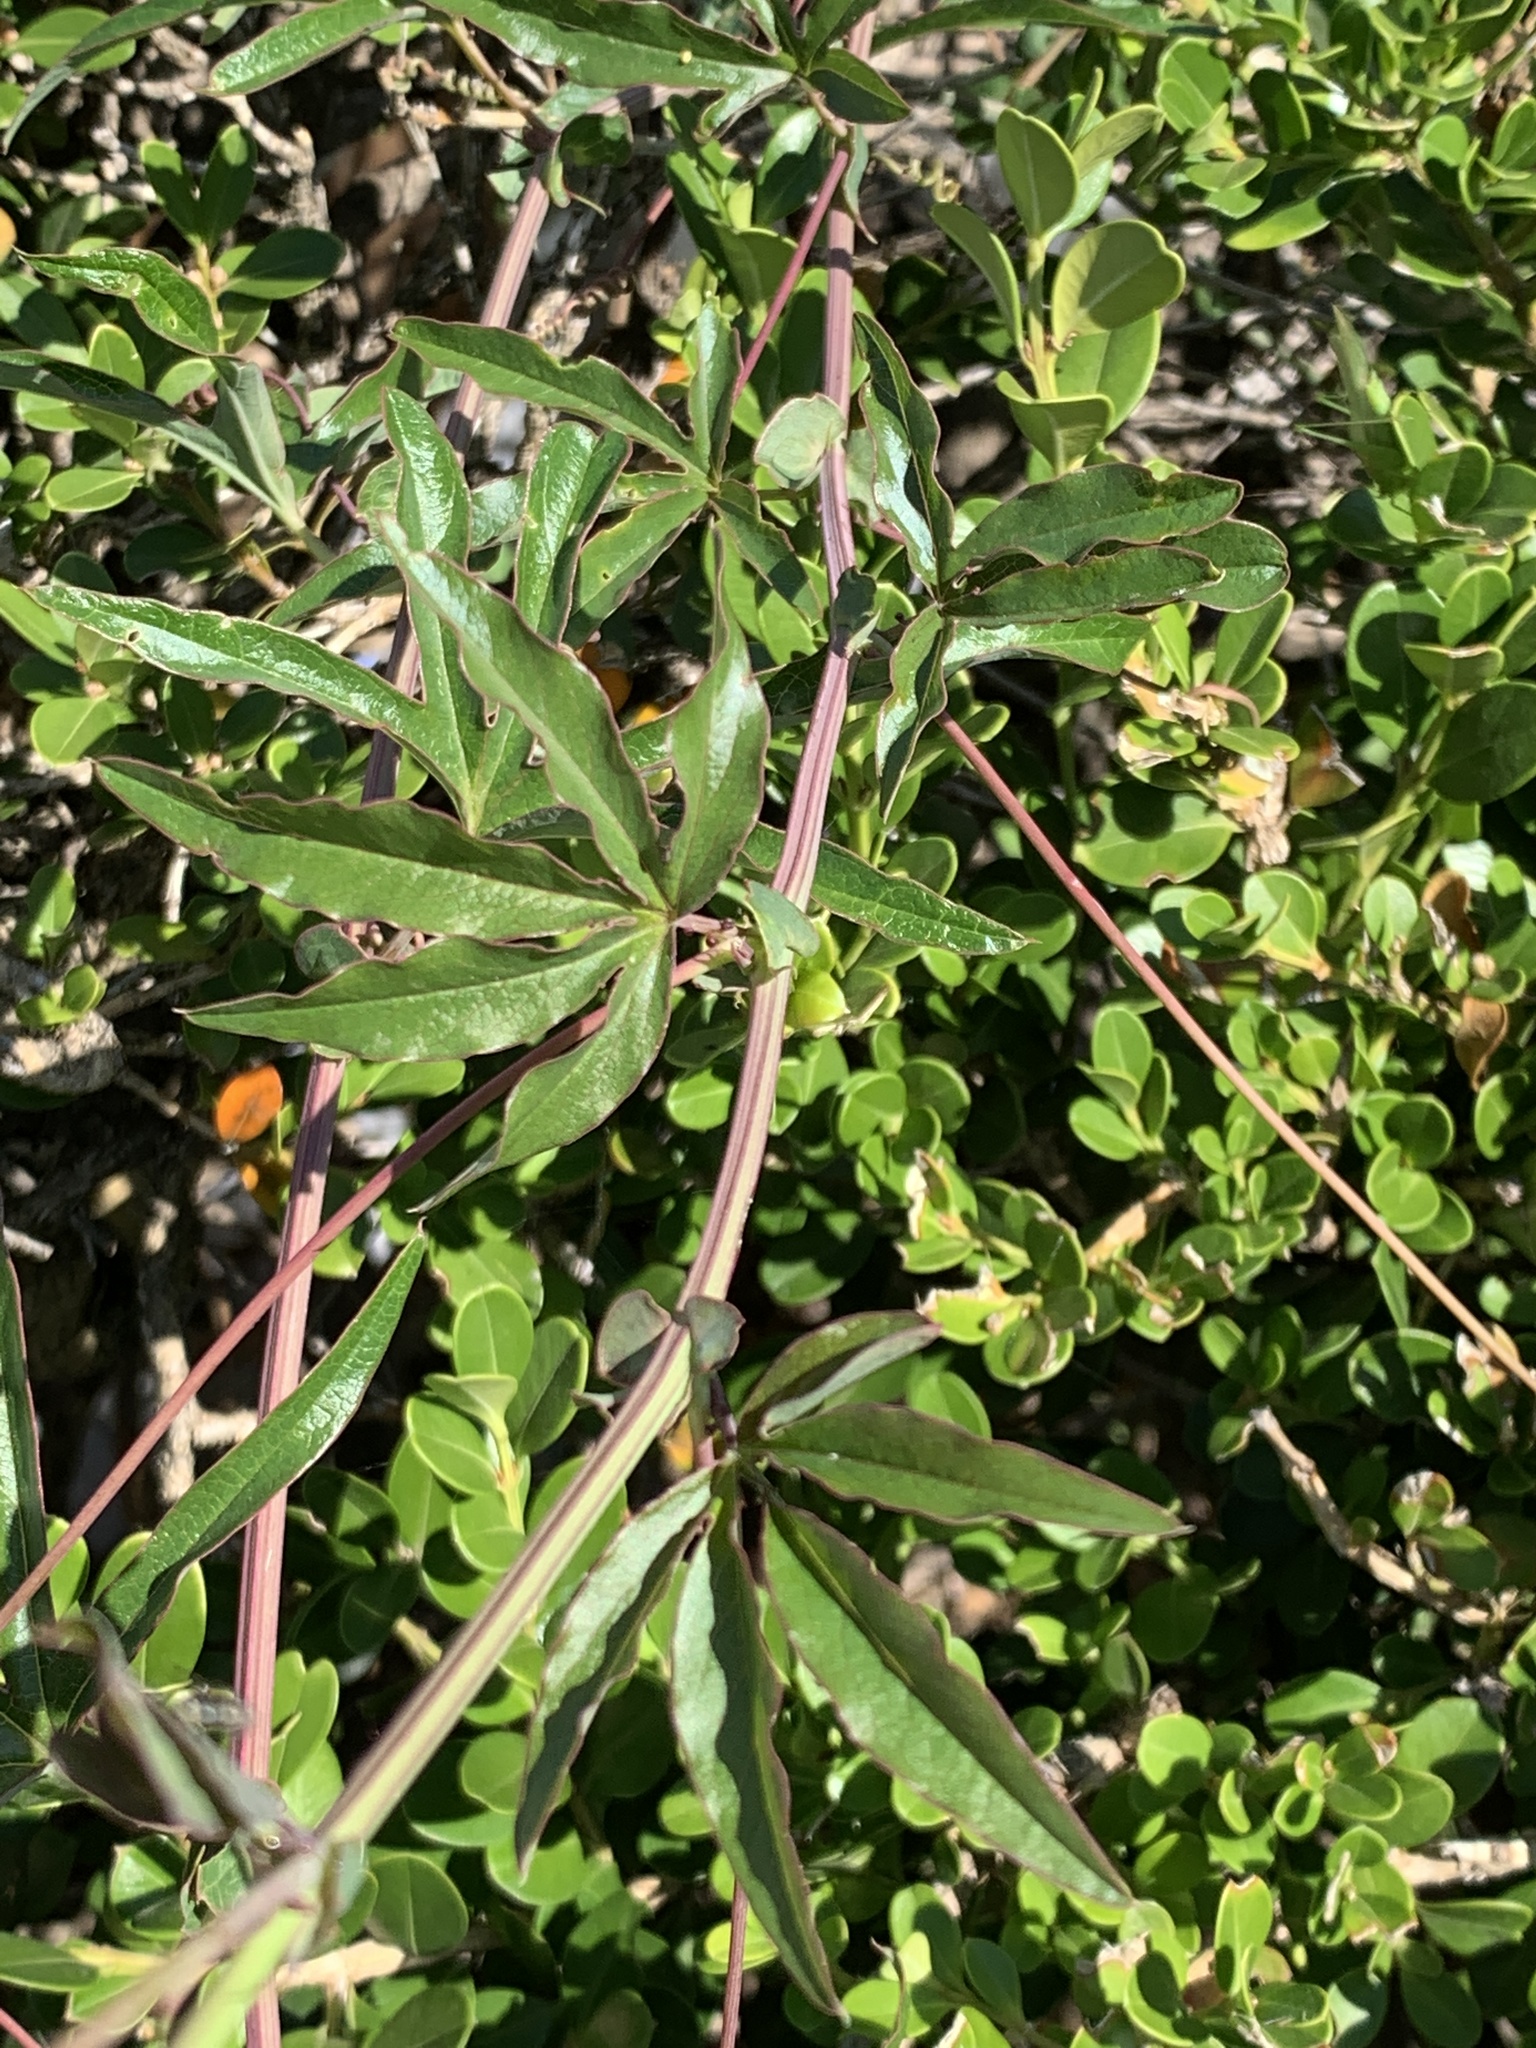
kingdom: Plantae
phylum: Tracheophyta
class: Magnoliopsida
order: Malpighiales
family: Passifloraceae
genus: Passiflora
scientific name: Passiflora caerulea
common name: Blue passionflower
